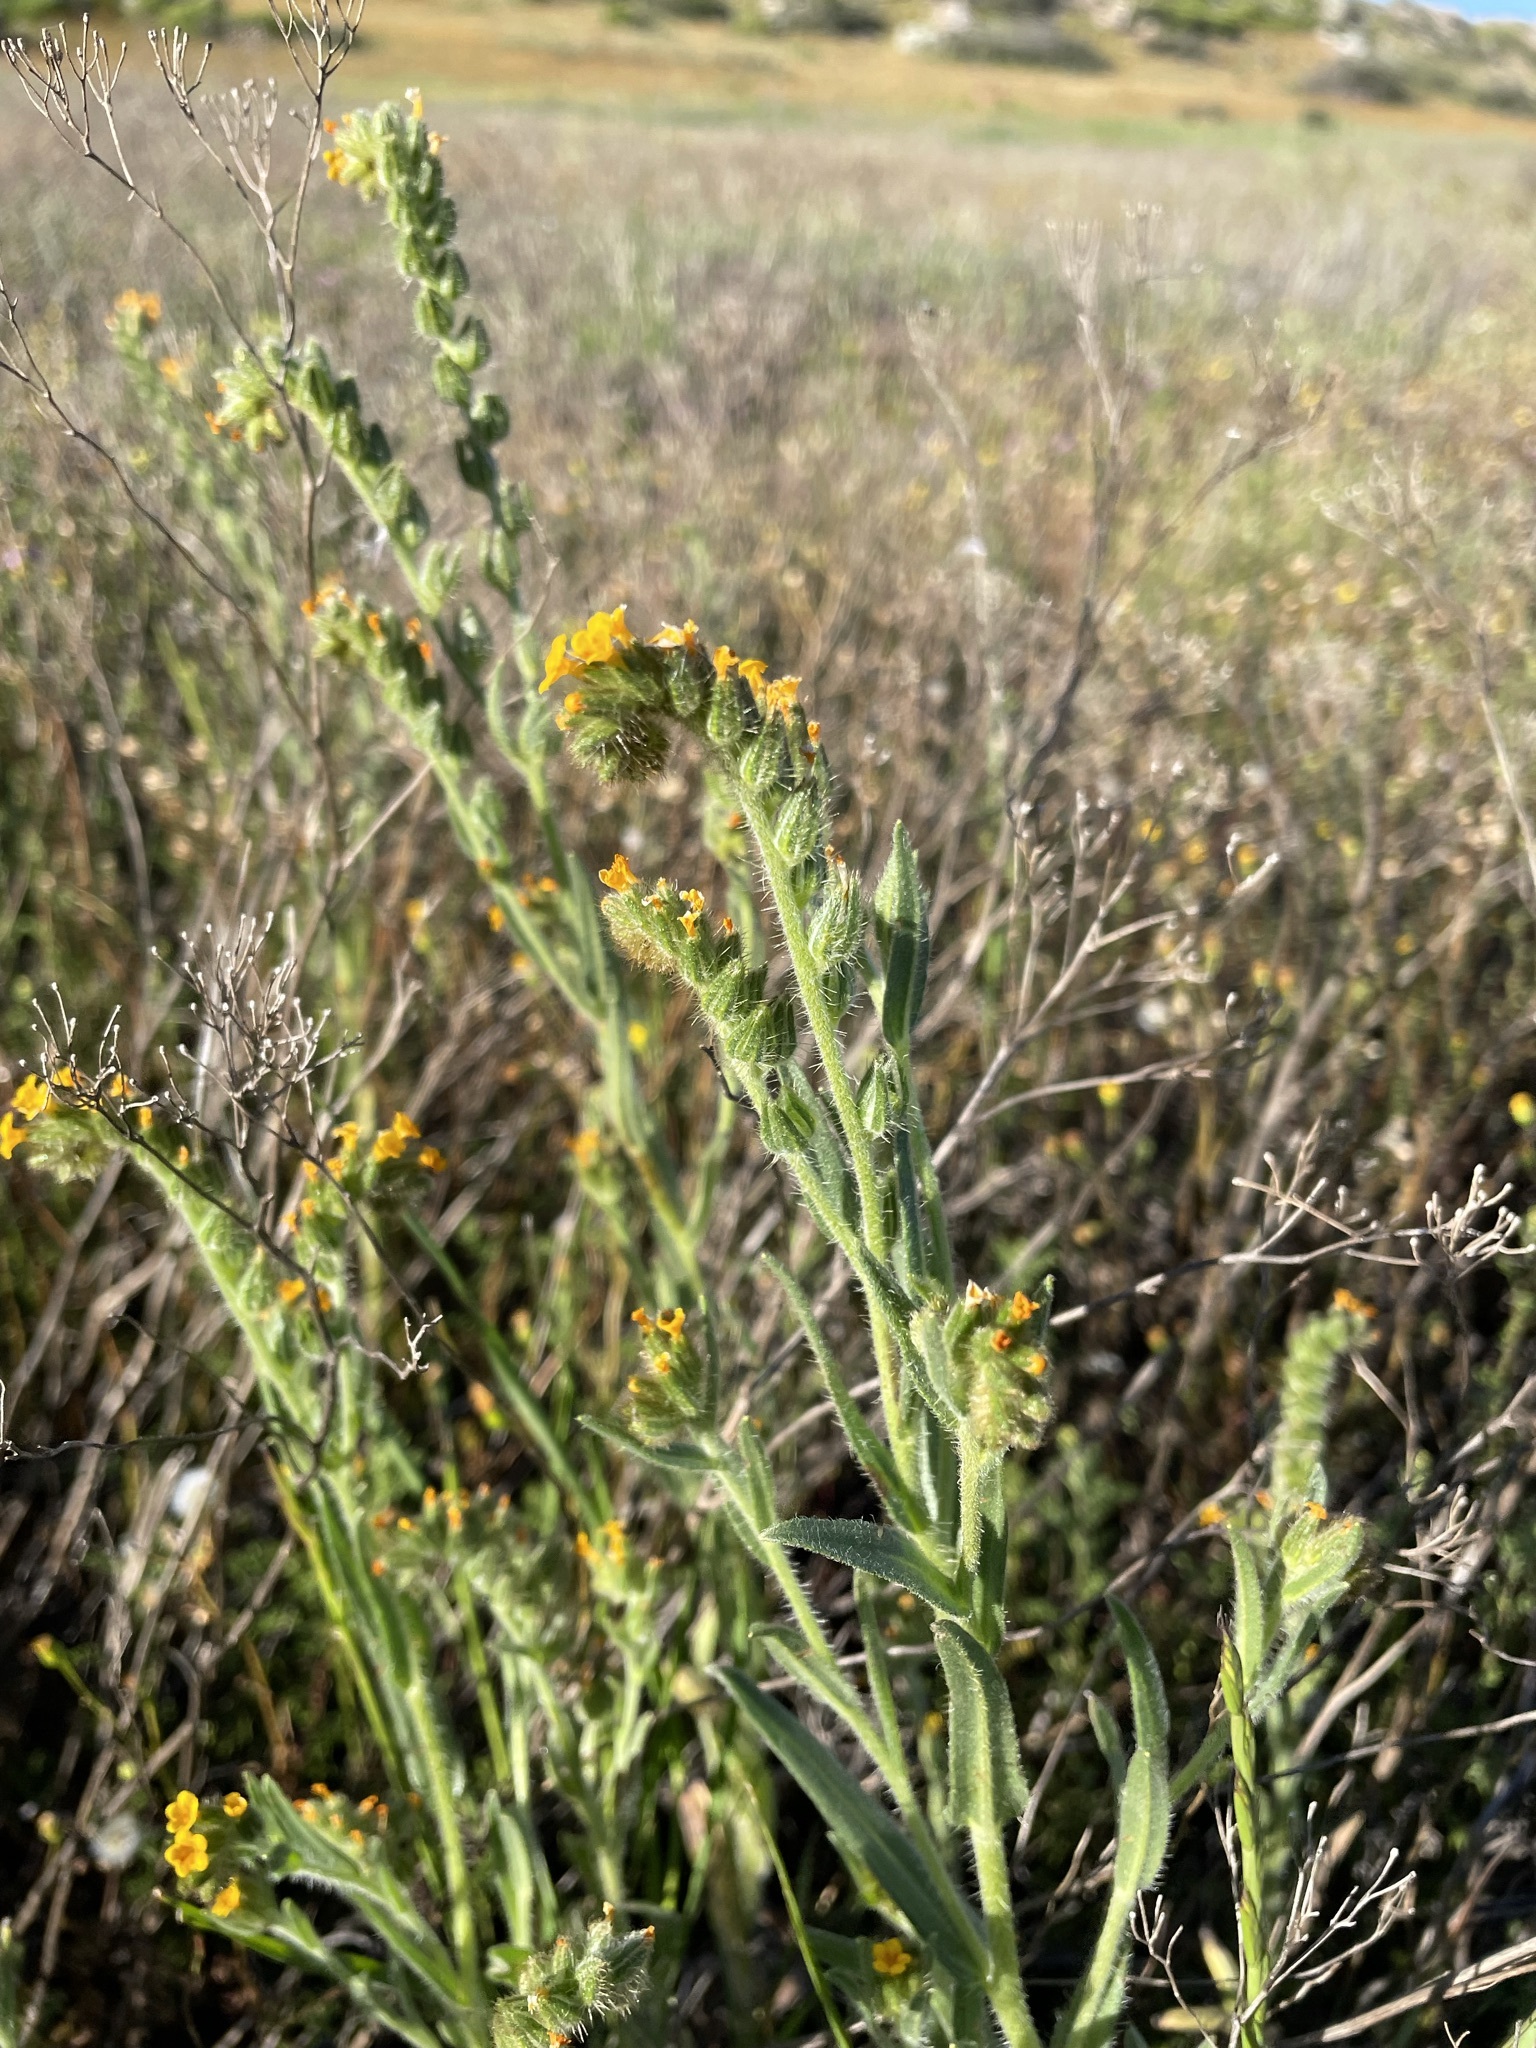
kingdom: Plantae
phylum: Tracheophyta
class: Magnoliopsida
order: Boraginales
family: Boraginaceae
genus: Amsinckia
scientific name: Amsinckia menziesii
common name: Menzies' fiddleneck
